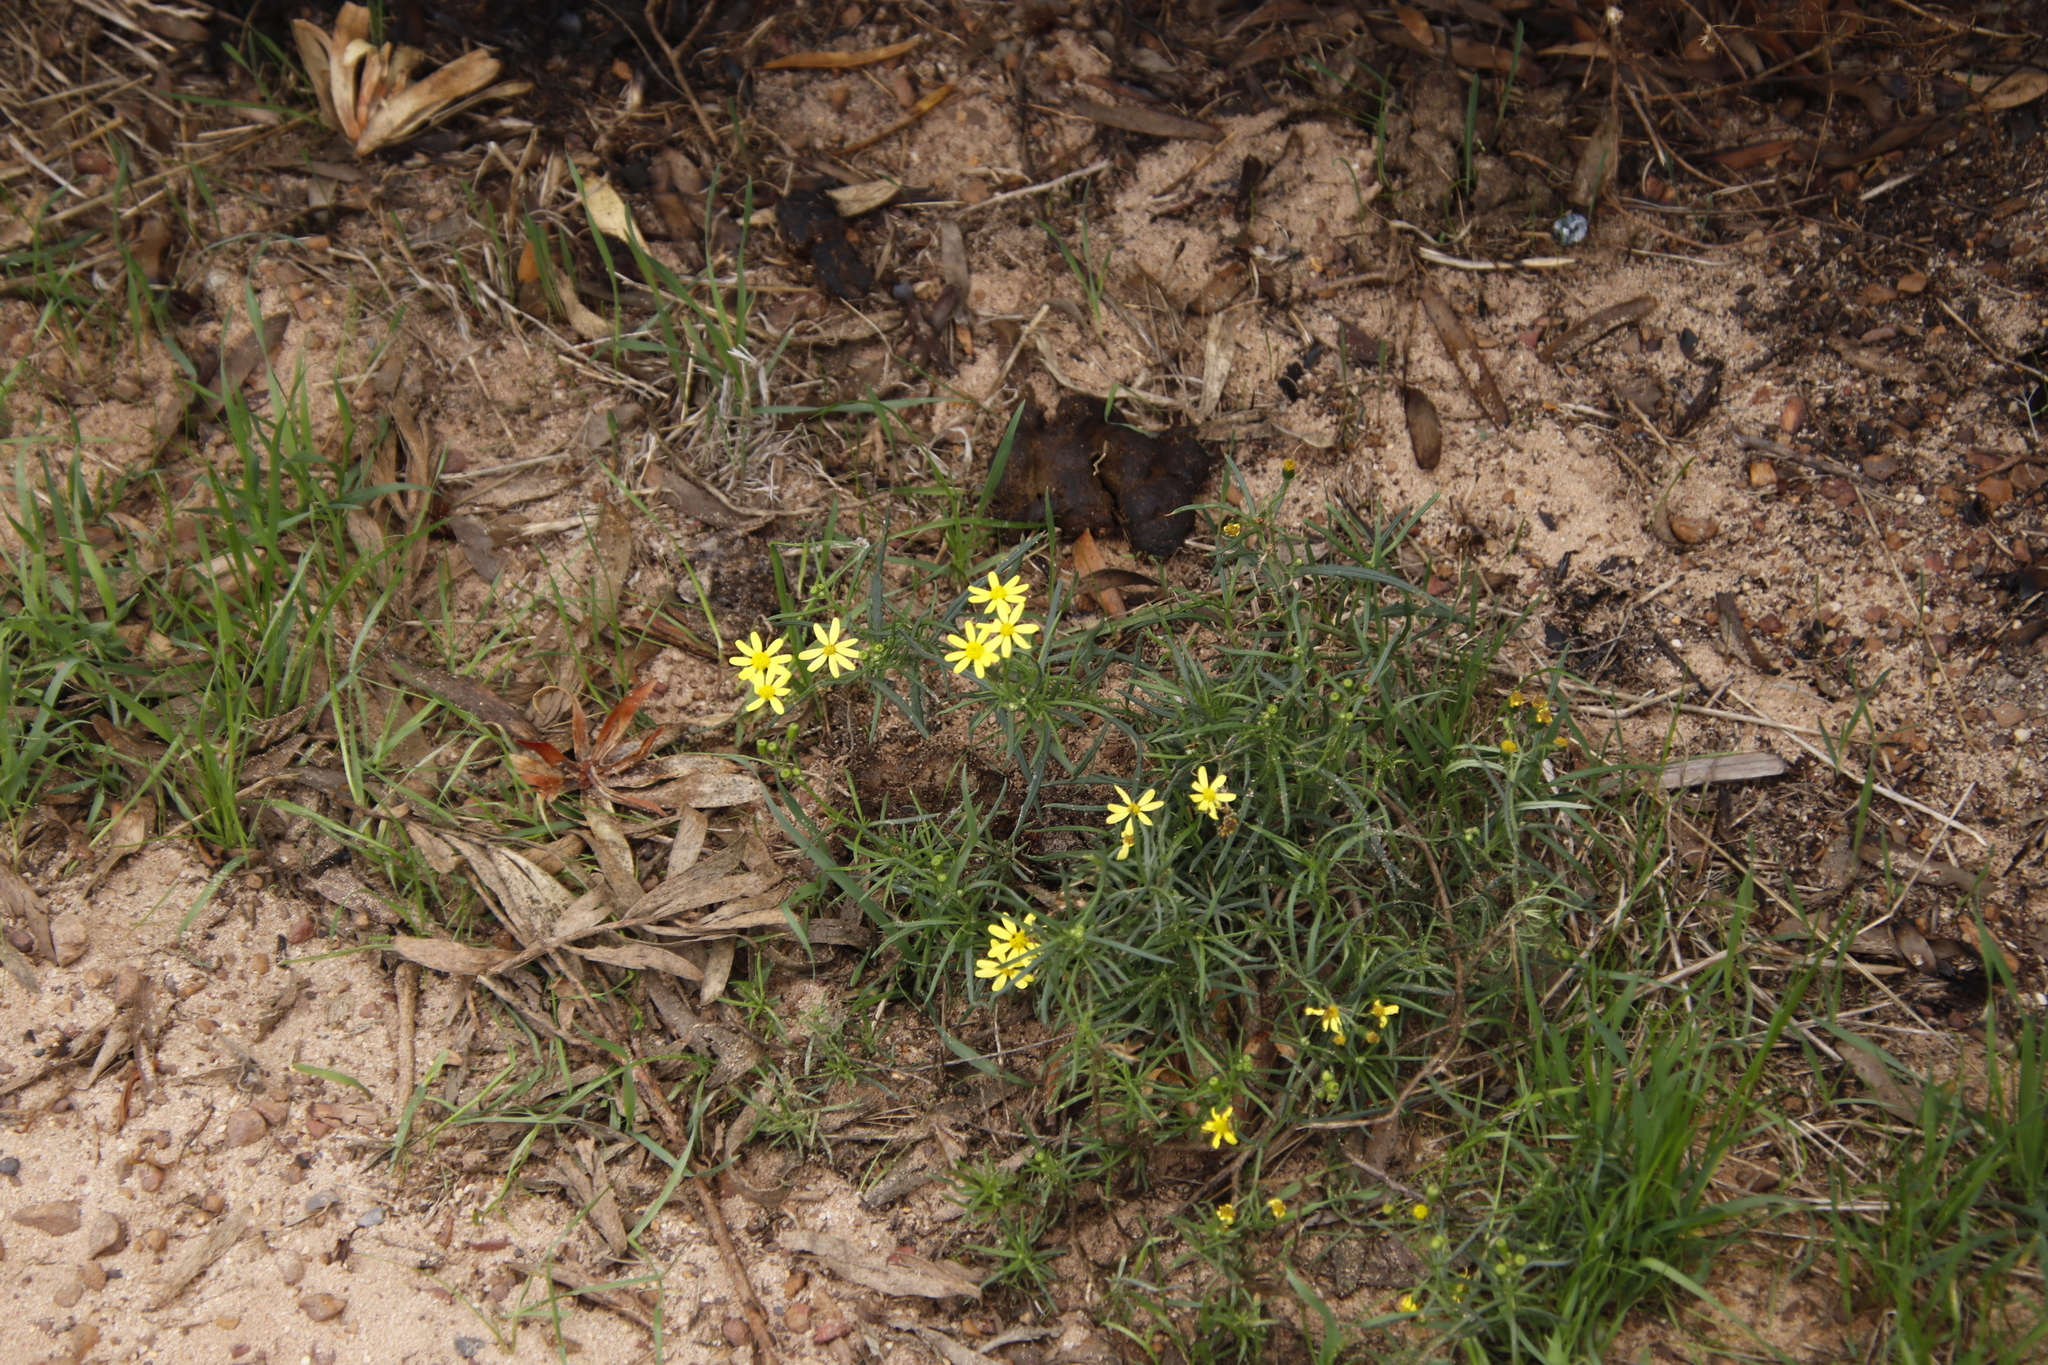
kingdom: Plantae
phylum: Tracheophyta
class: Magnoliopsida
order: Asterales
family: Asteraceae
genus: Senecio
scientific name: Senecio burchellii
